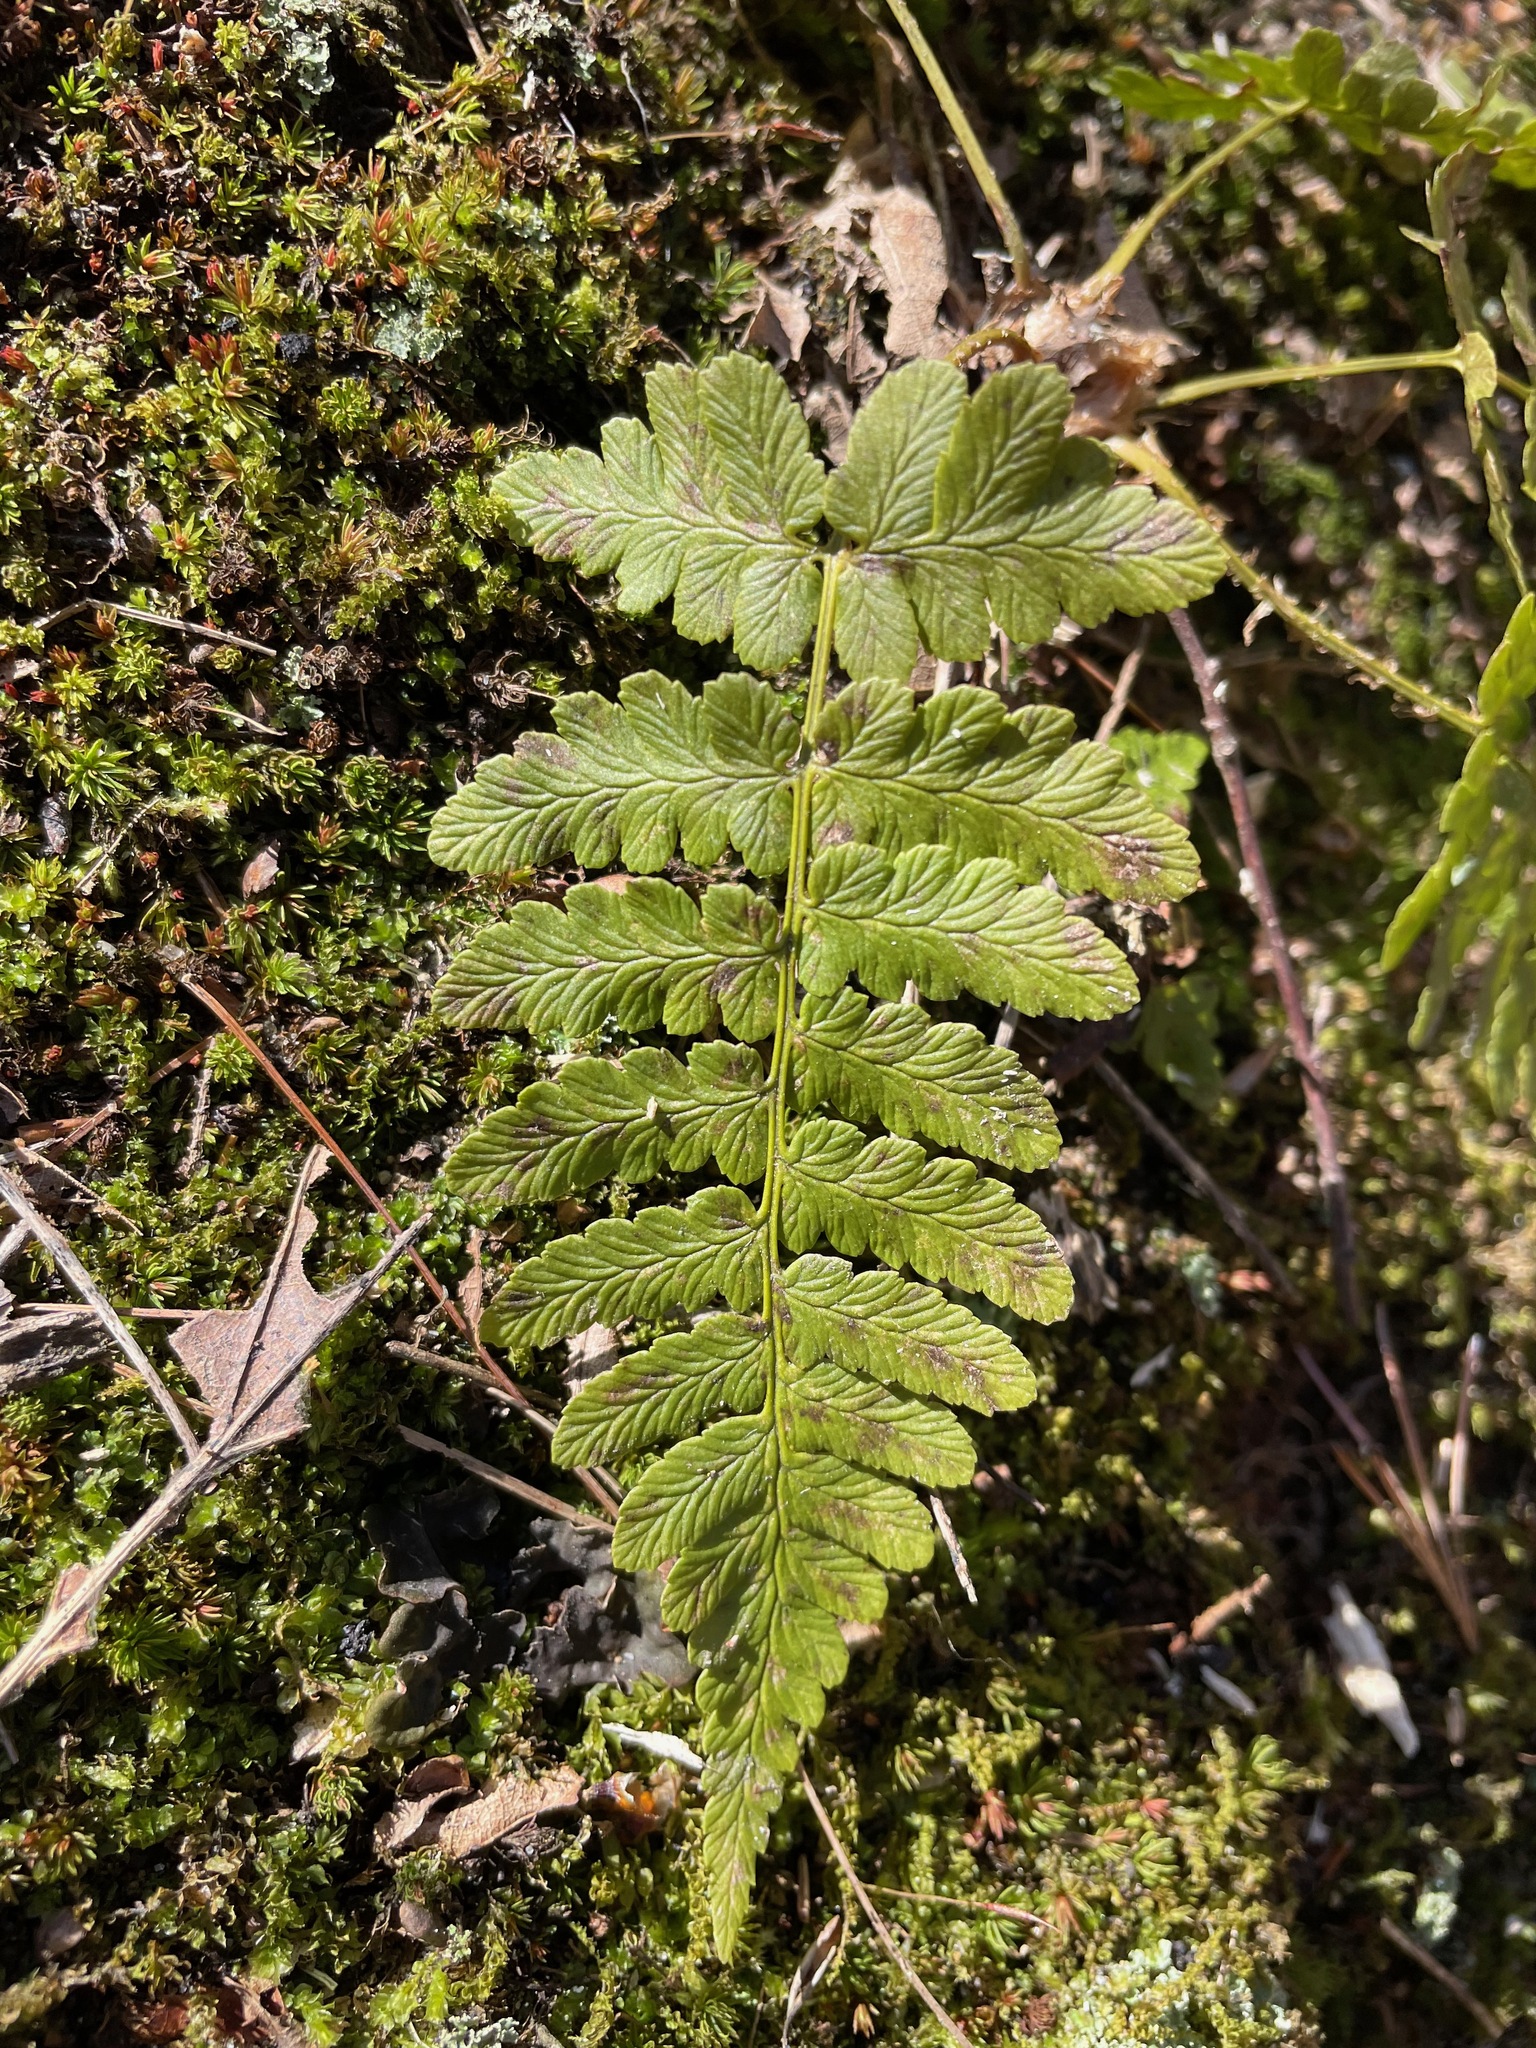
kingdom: Plantae
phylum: Tracheophyta
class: Polypodiopsida
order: Polypodiales
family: Dryopteridaceae
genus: Dryopteris
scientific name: Dryopteris marginalis
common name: Marginal wood fern
